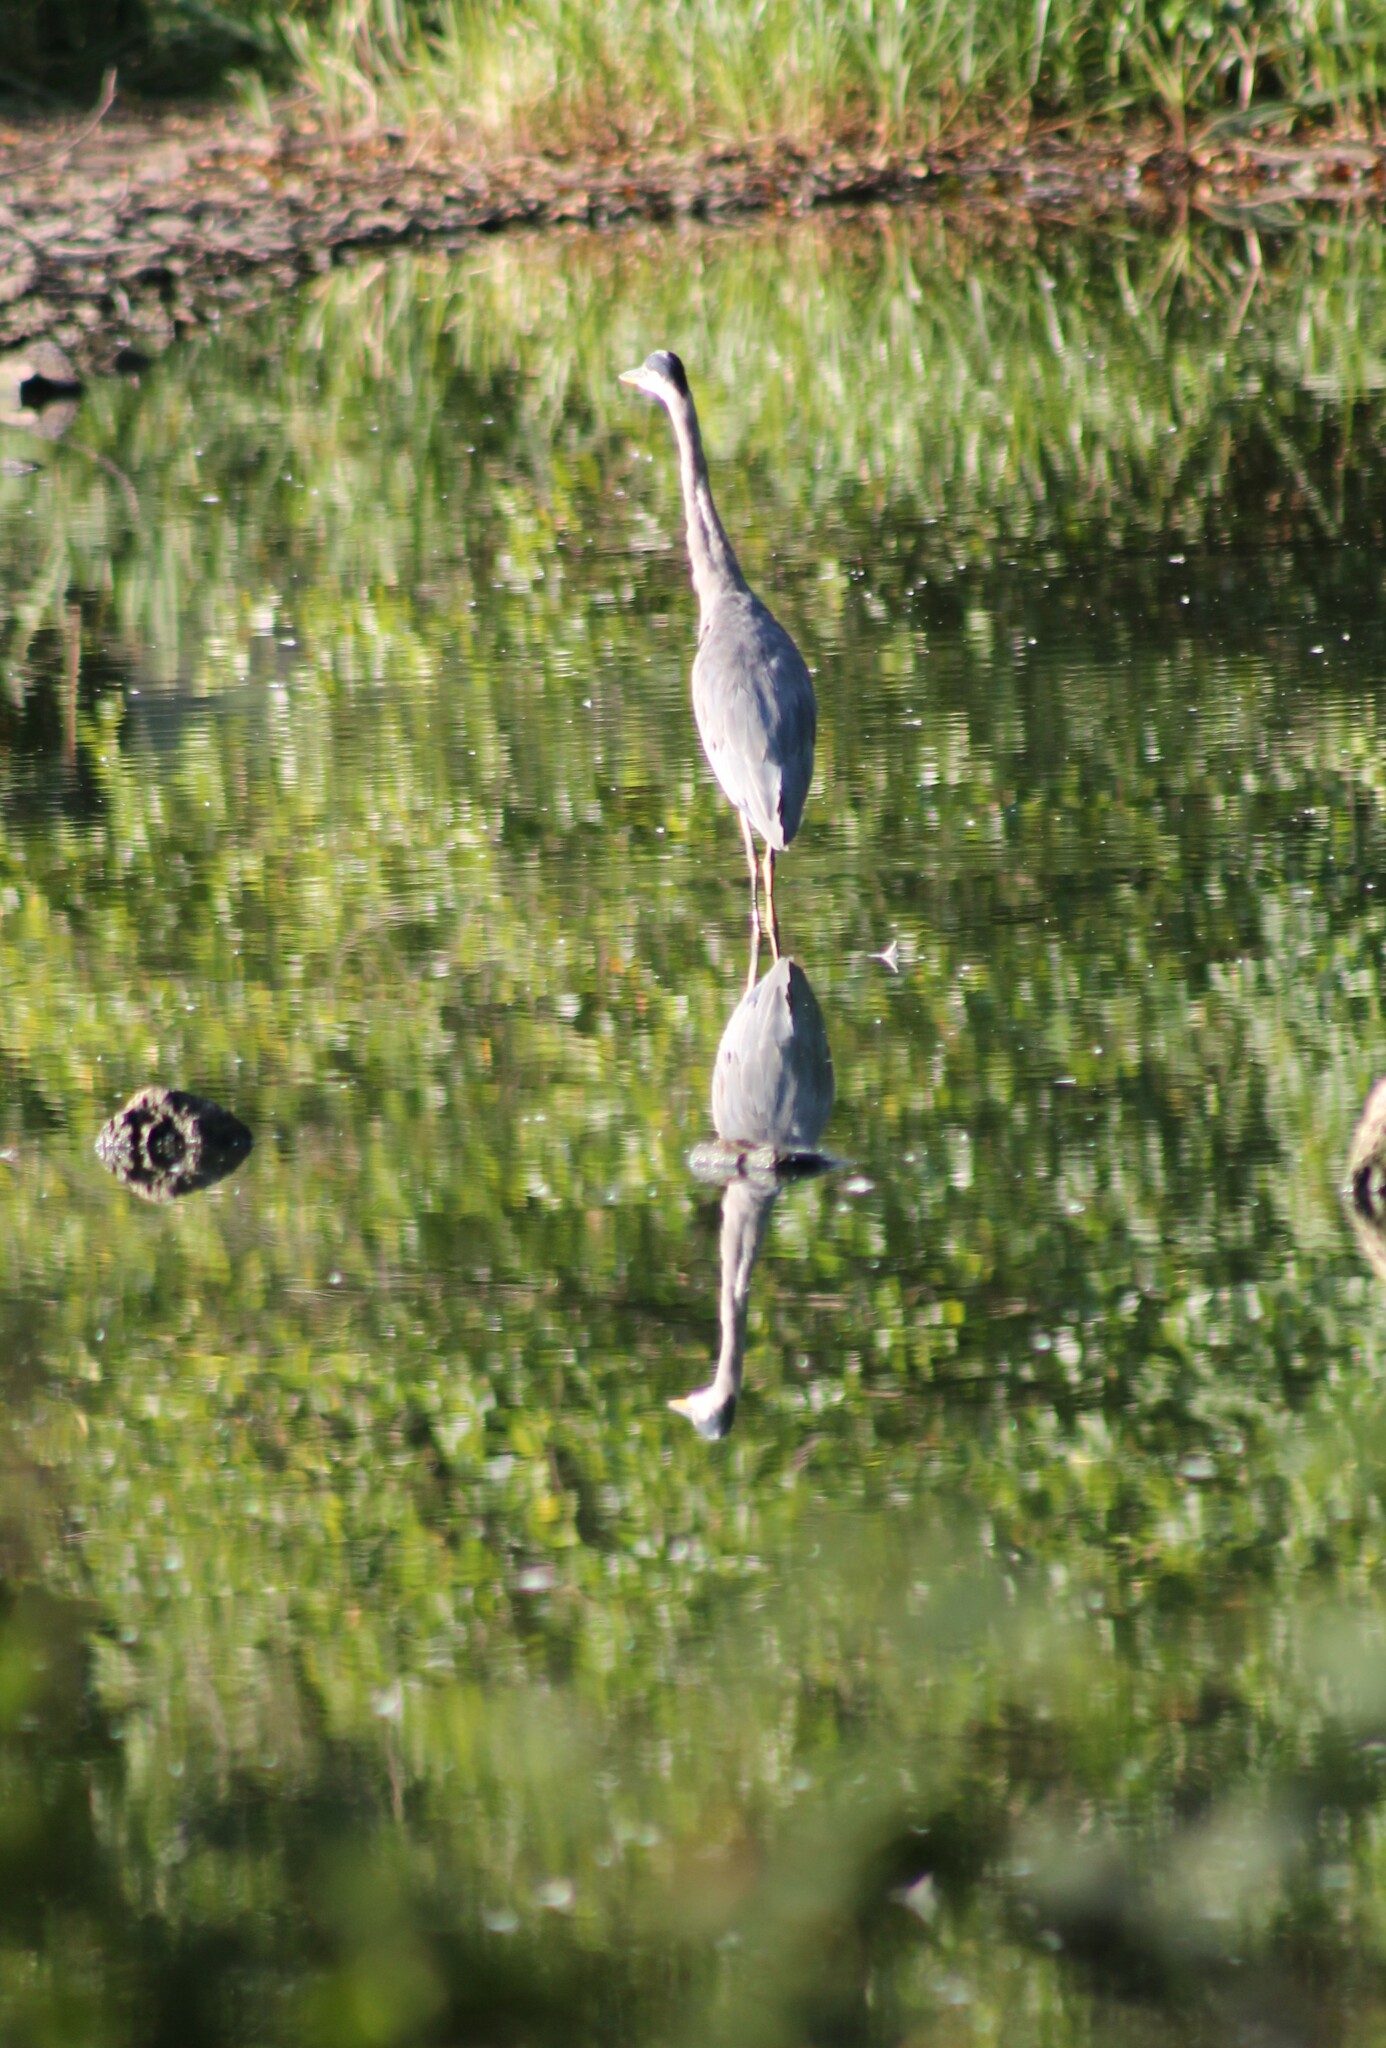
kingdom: Animalia
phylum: Chordata
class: Aves
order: Pelecaniformes
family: Ardeidae
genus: Ardea
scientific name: Ardea cinerea
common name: Grey heron
